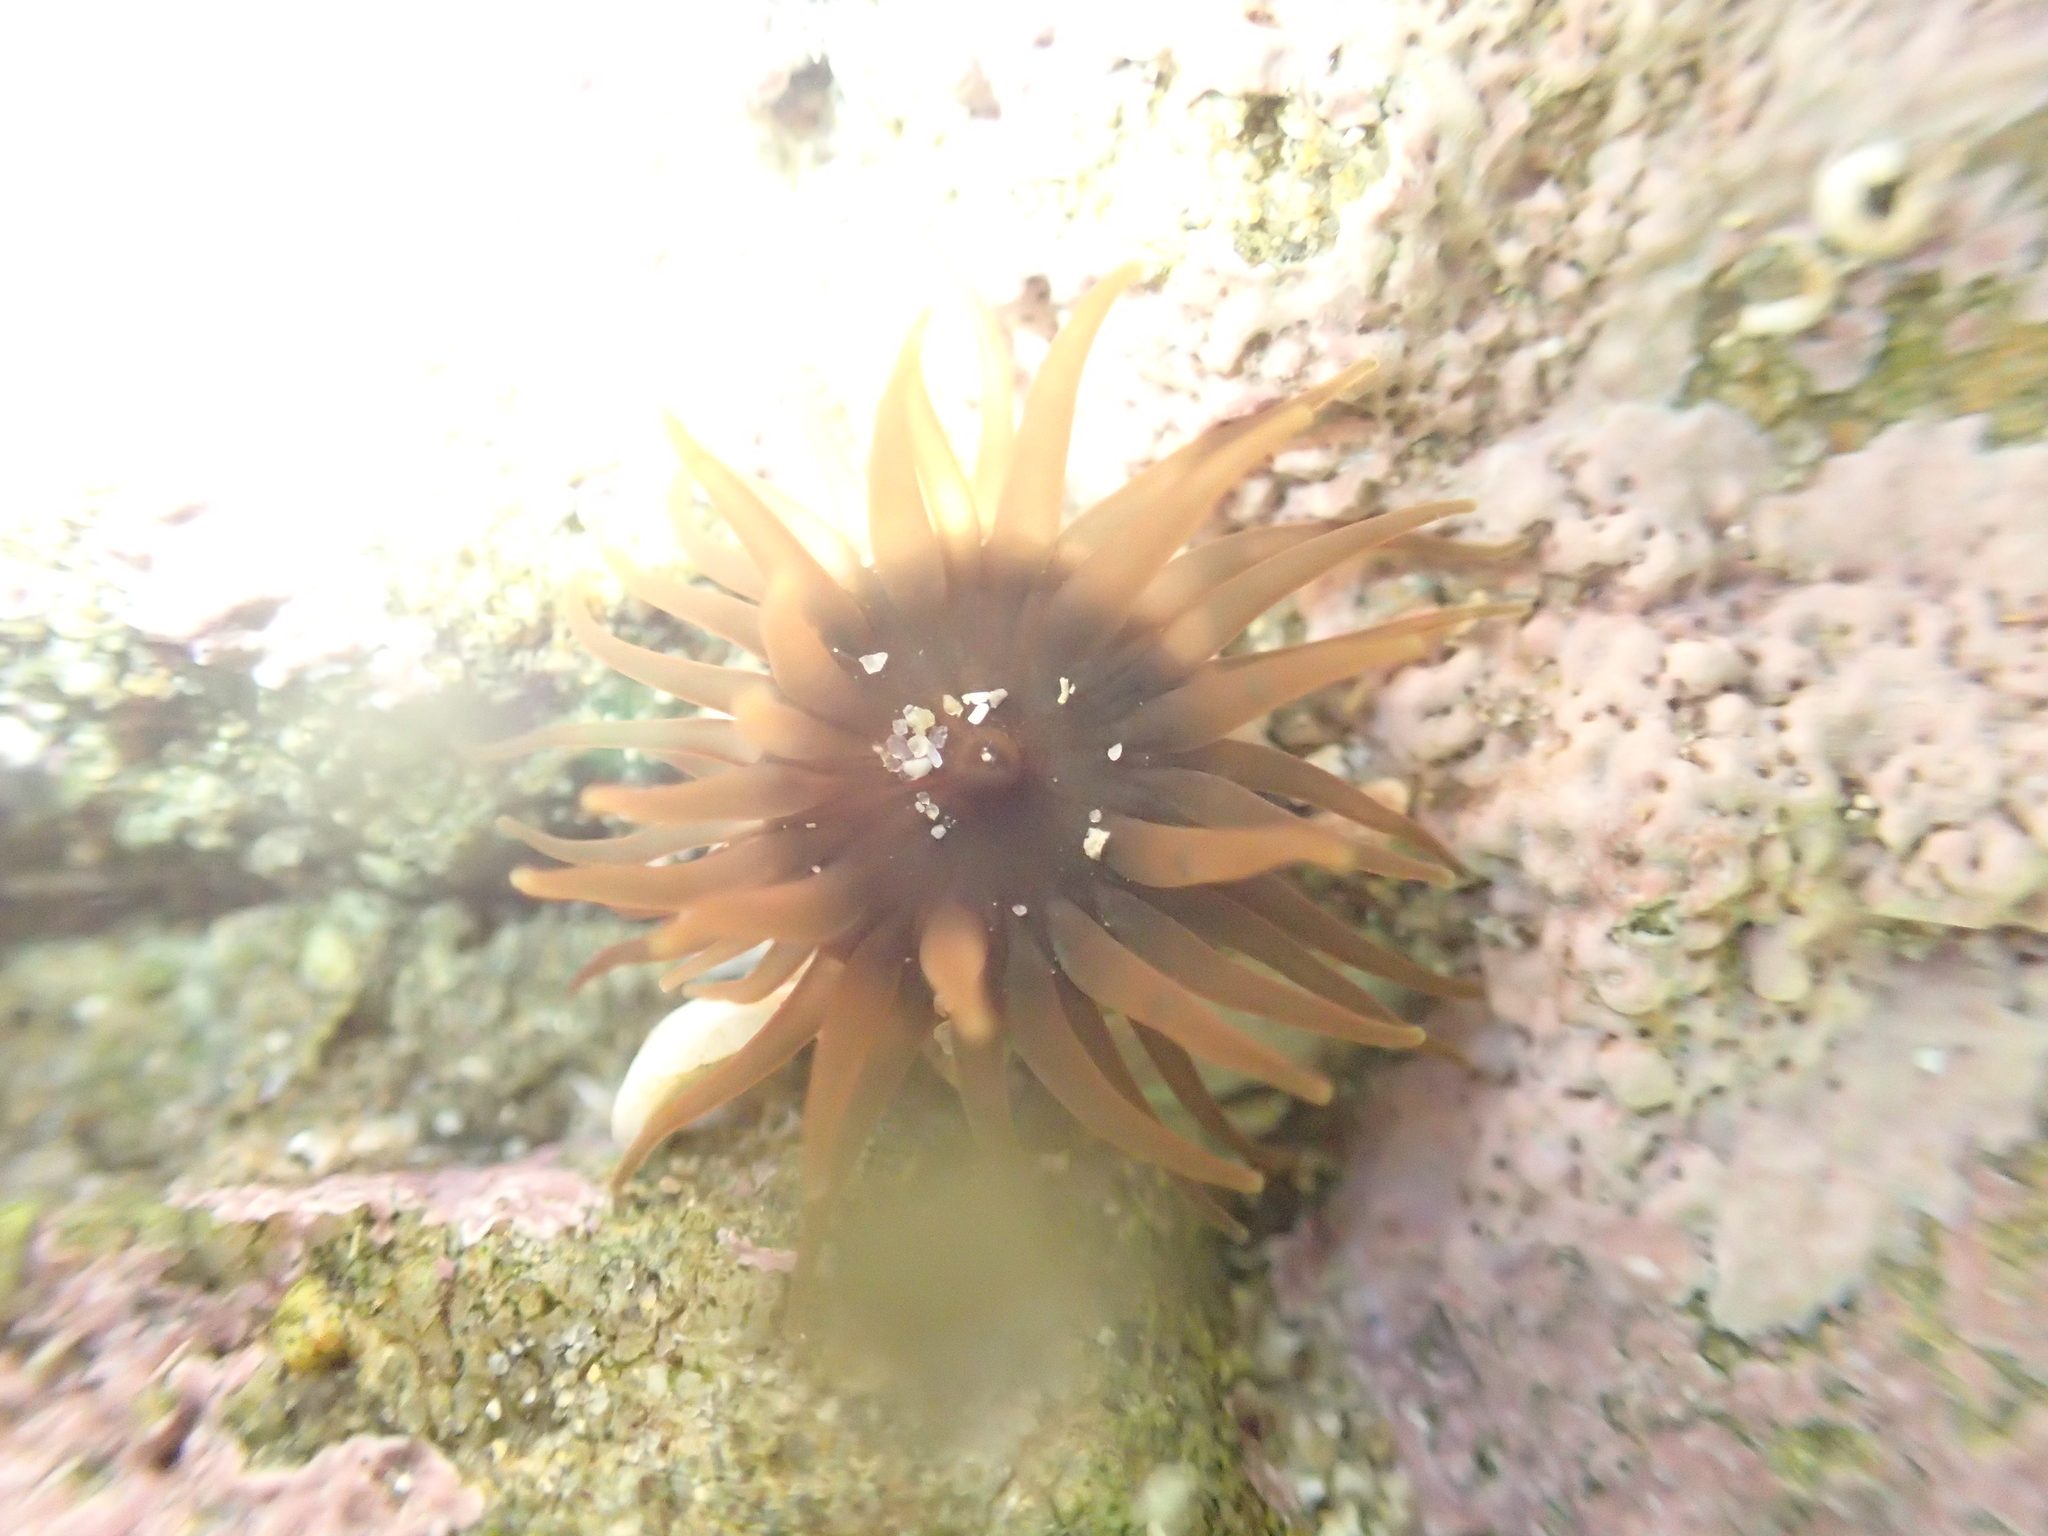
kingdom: Animalia
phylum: Cnidaria
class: Anthozoa
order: Actiniaria
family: Actiniidae
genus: Isactinia
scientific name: Isactinia olivacea
